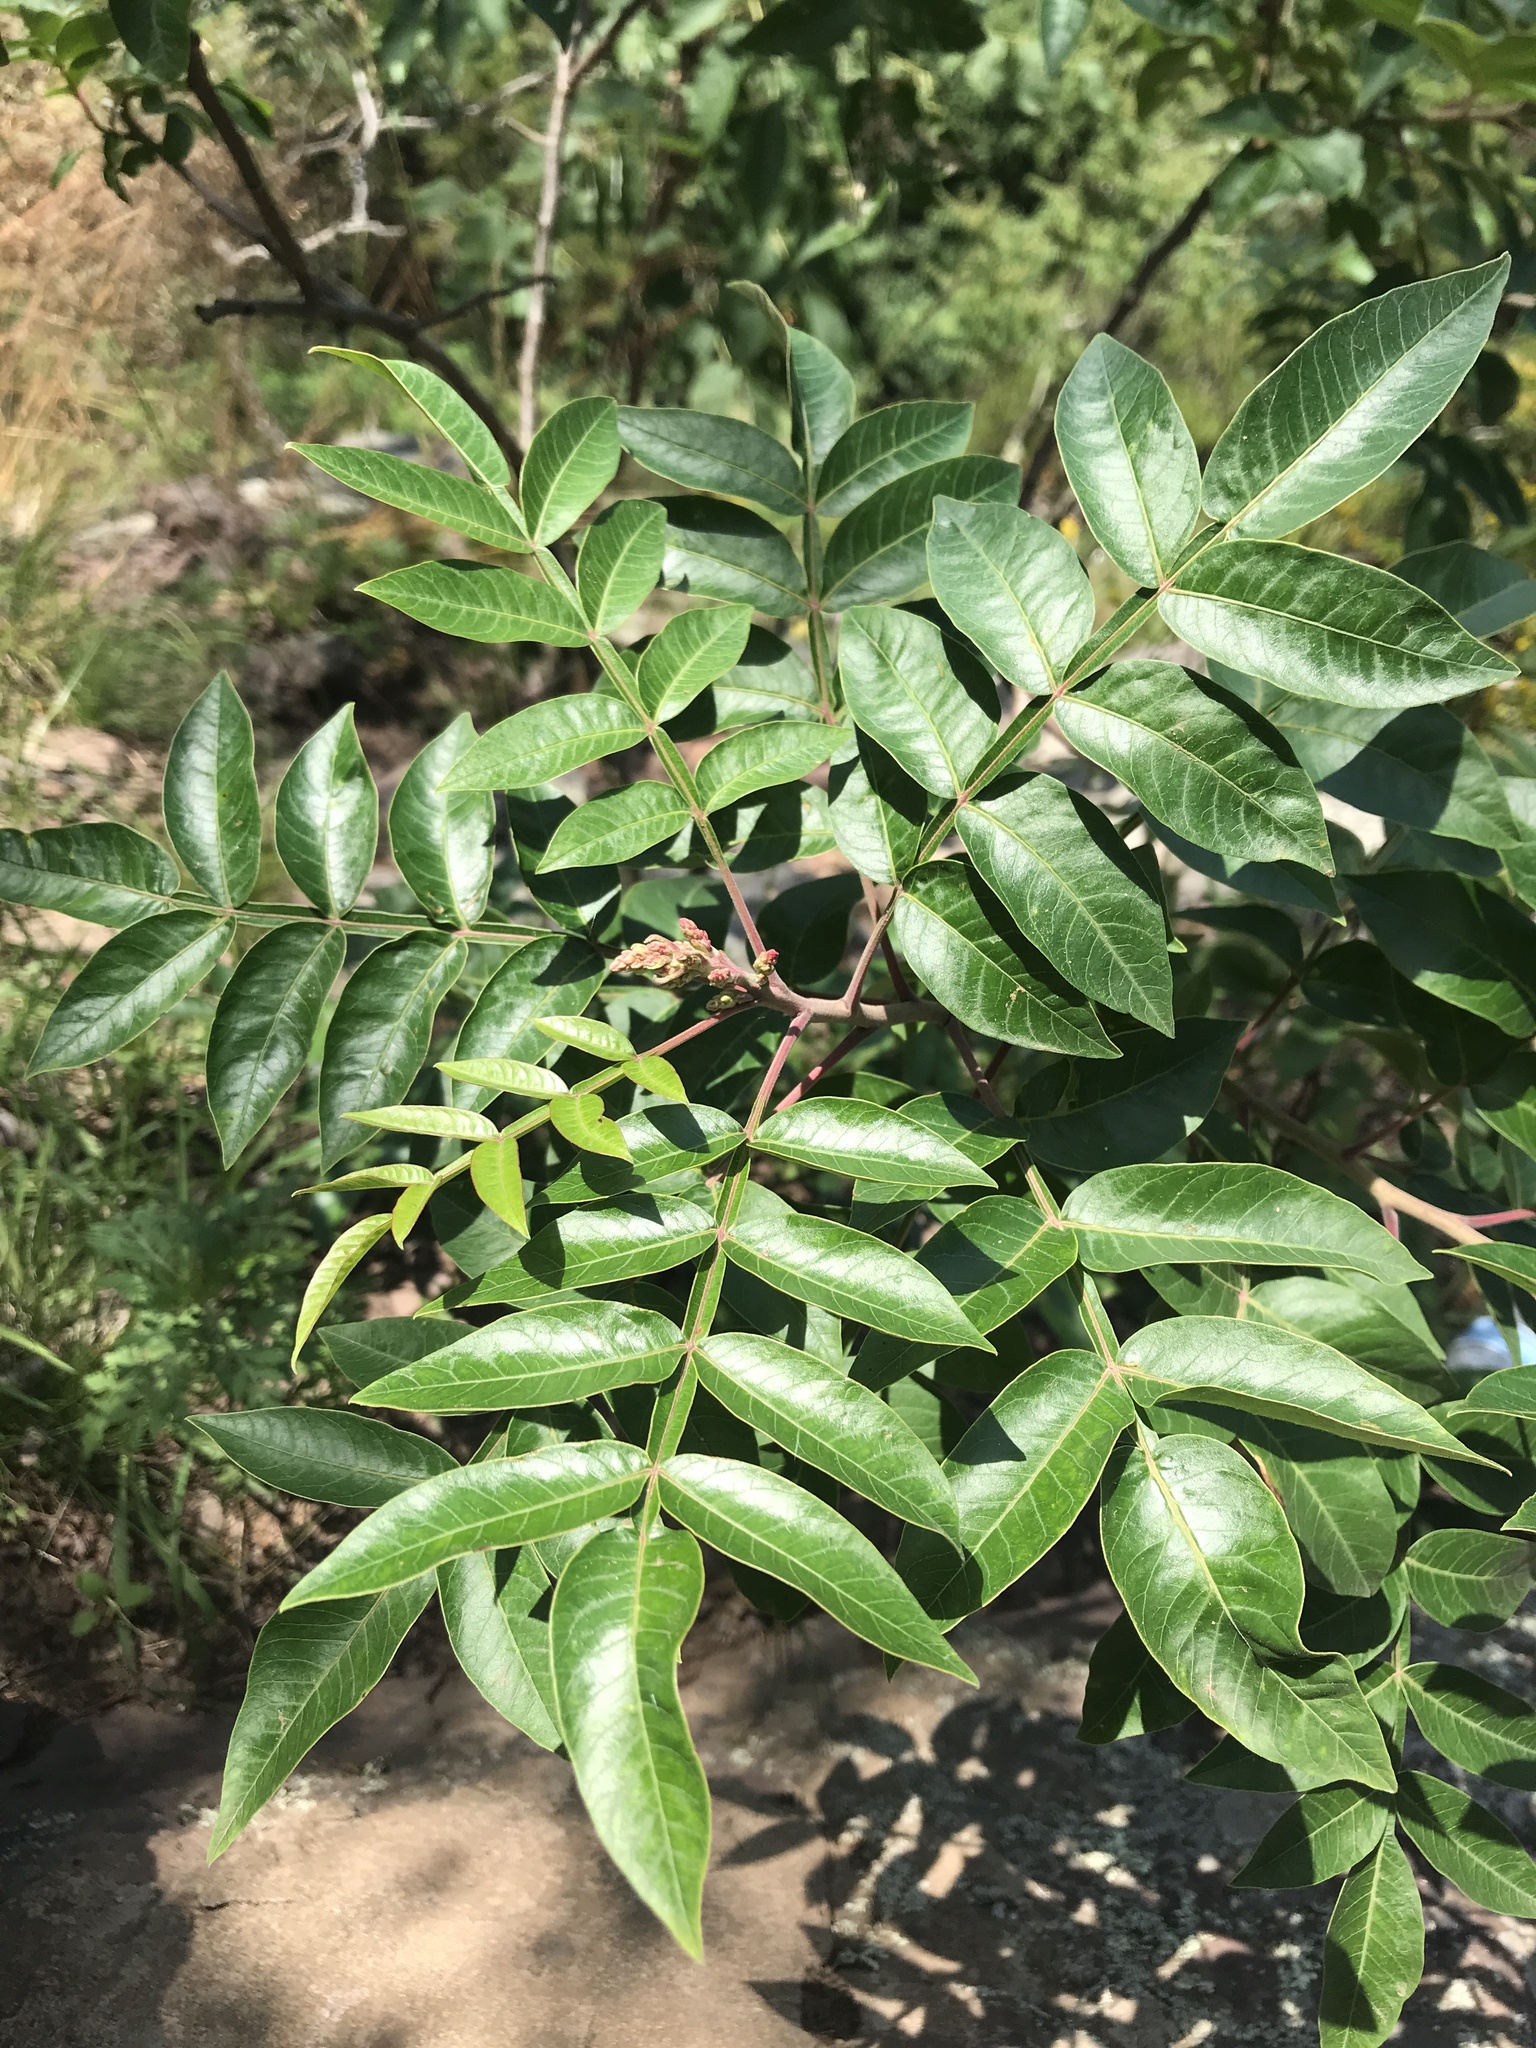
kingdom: Plantae
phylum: Tracheophyta
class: Magnoliopsida
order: Sapindales
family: Anacardiaceae
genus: Rhus
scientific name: Rhus copallina
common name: Shining sumac
